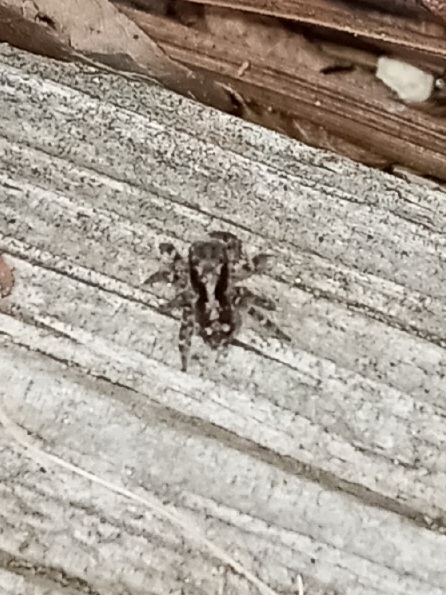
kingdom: Animalia
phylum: Arthropoda
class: Arachnida
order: Araneae
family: Salticidae
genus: Naphrys
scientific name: Naphrys pulex
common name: Flea jumping spider
